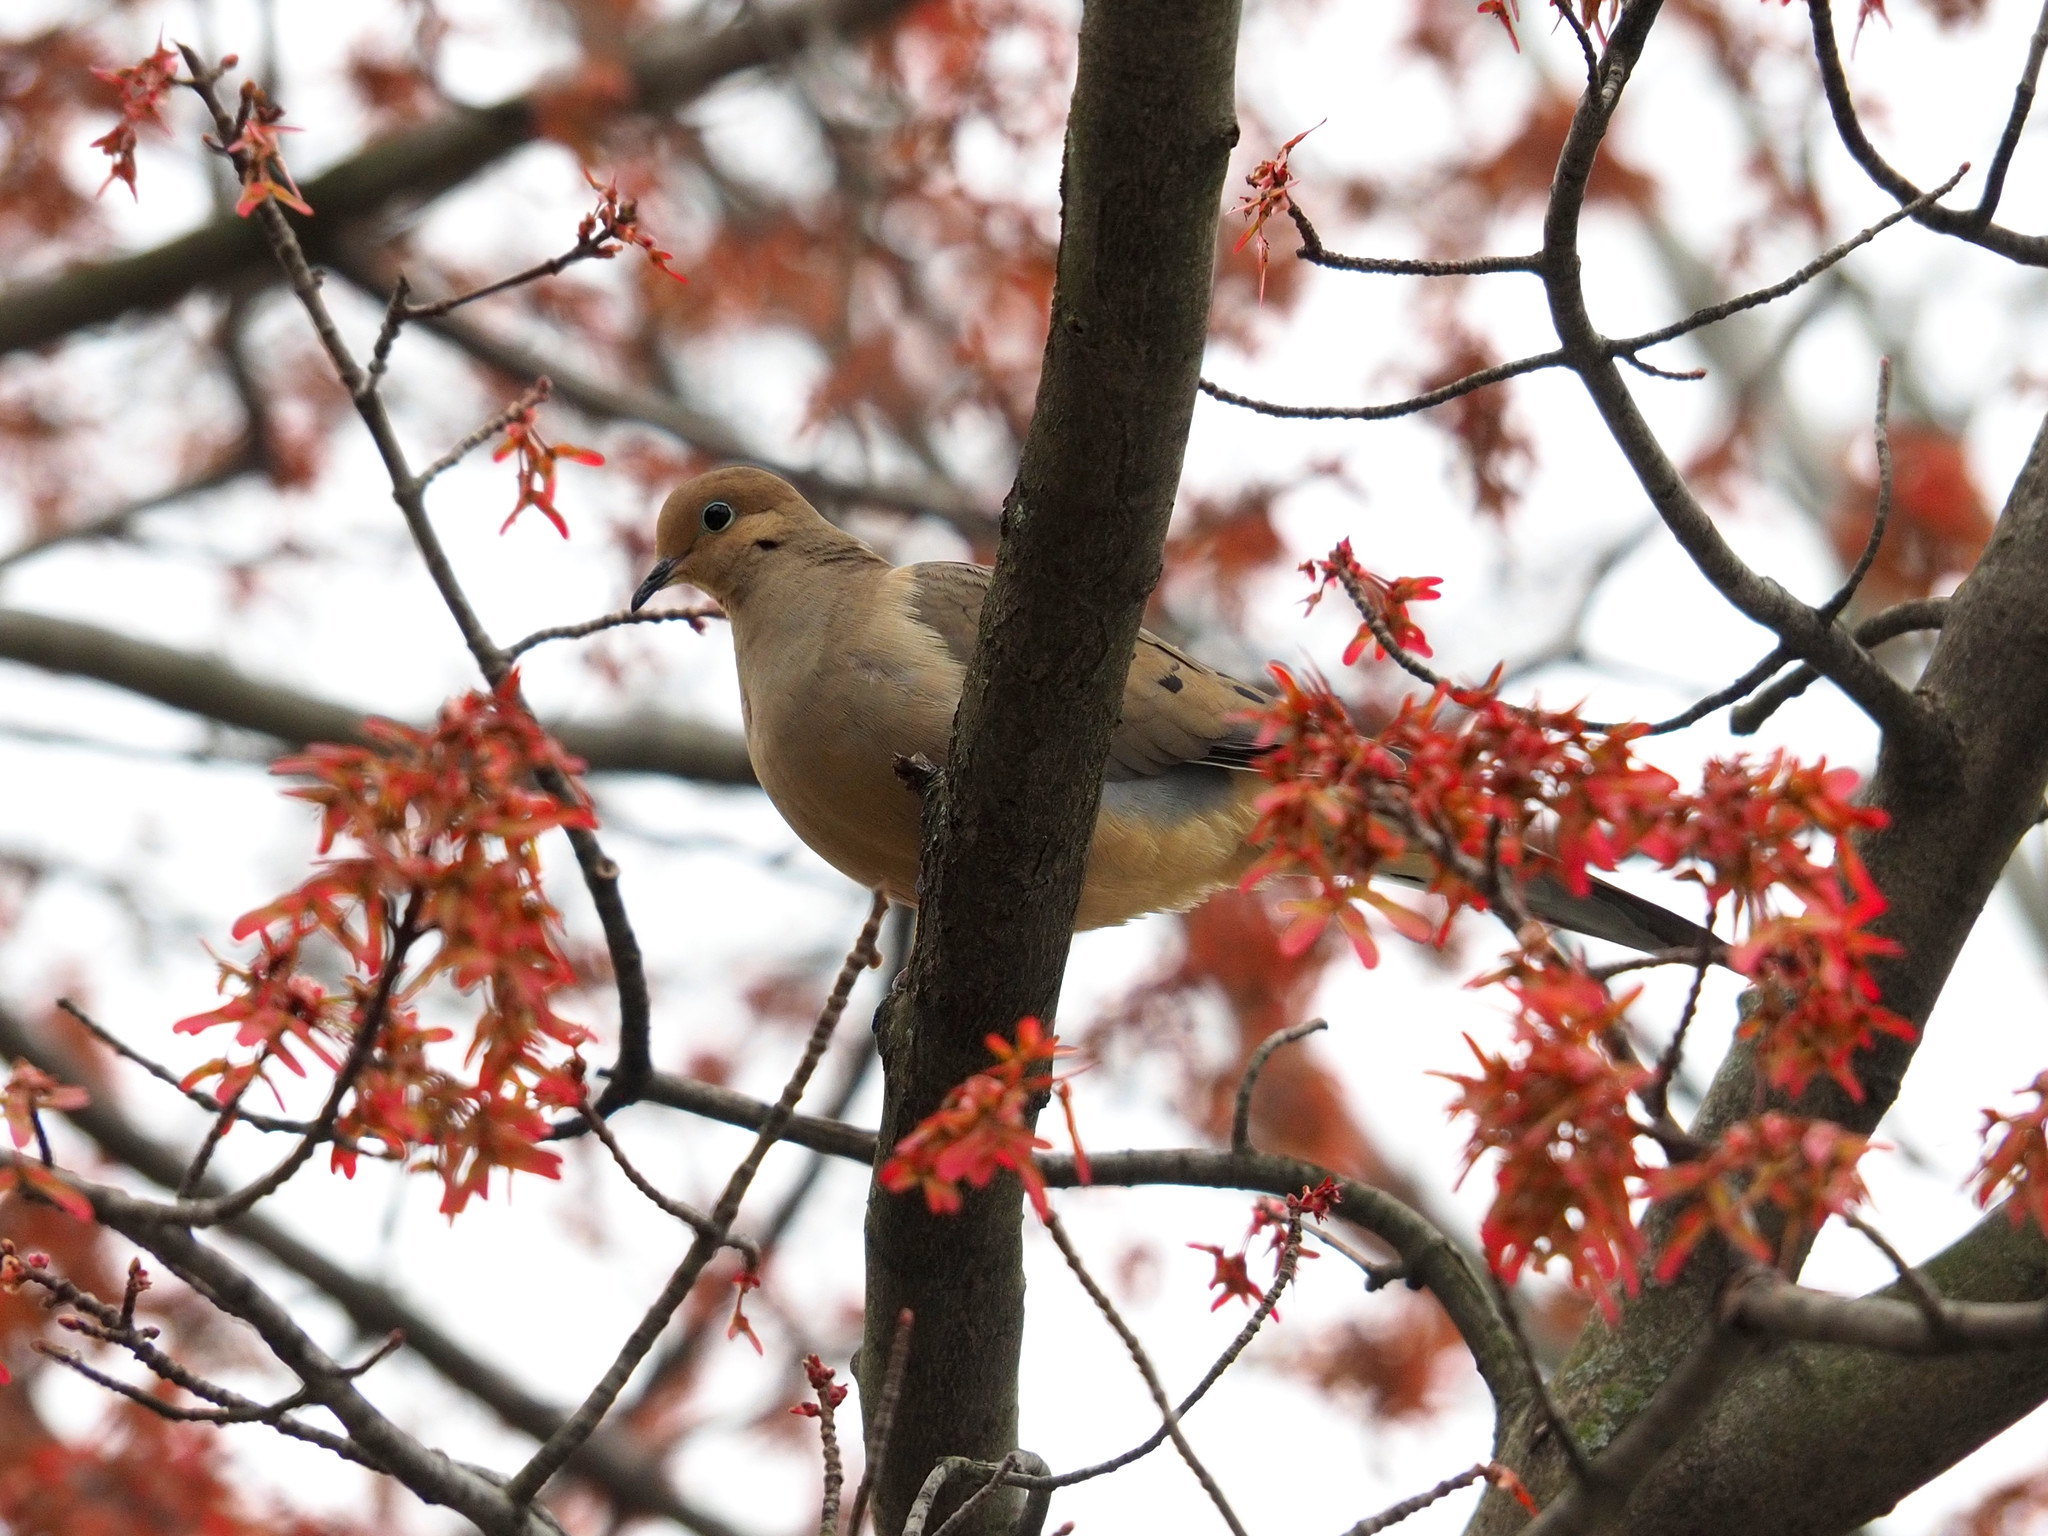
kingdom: Animalia
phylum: Chordata
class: Aves
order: Columbiformes
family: Columbidae
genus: Zenaida
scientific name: Zenaida macroura
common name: Mourning dove
